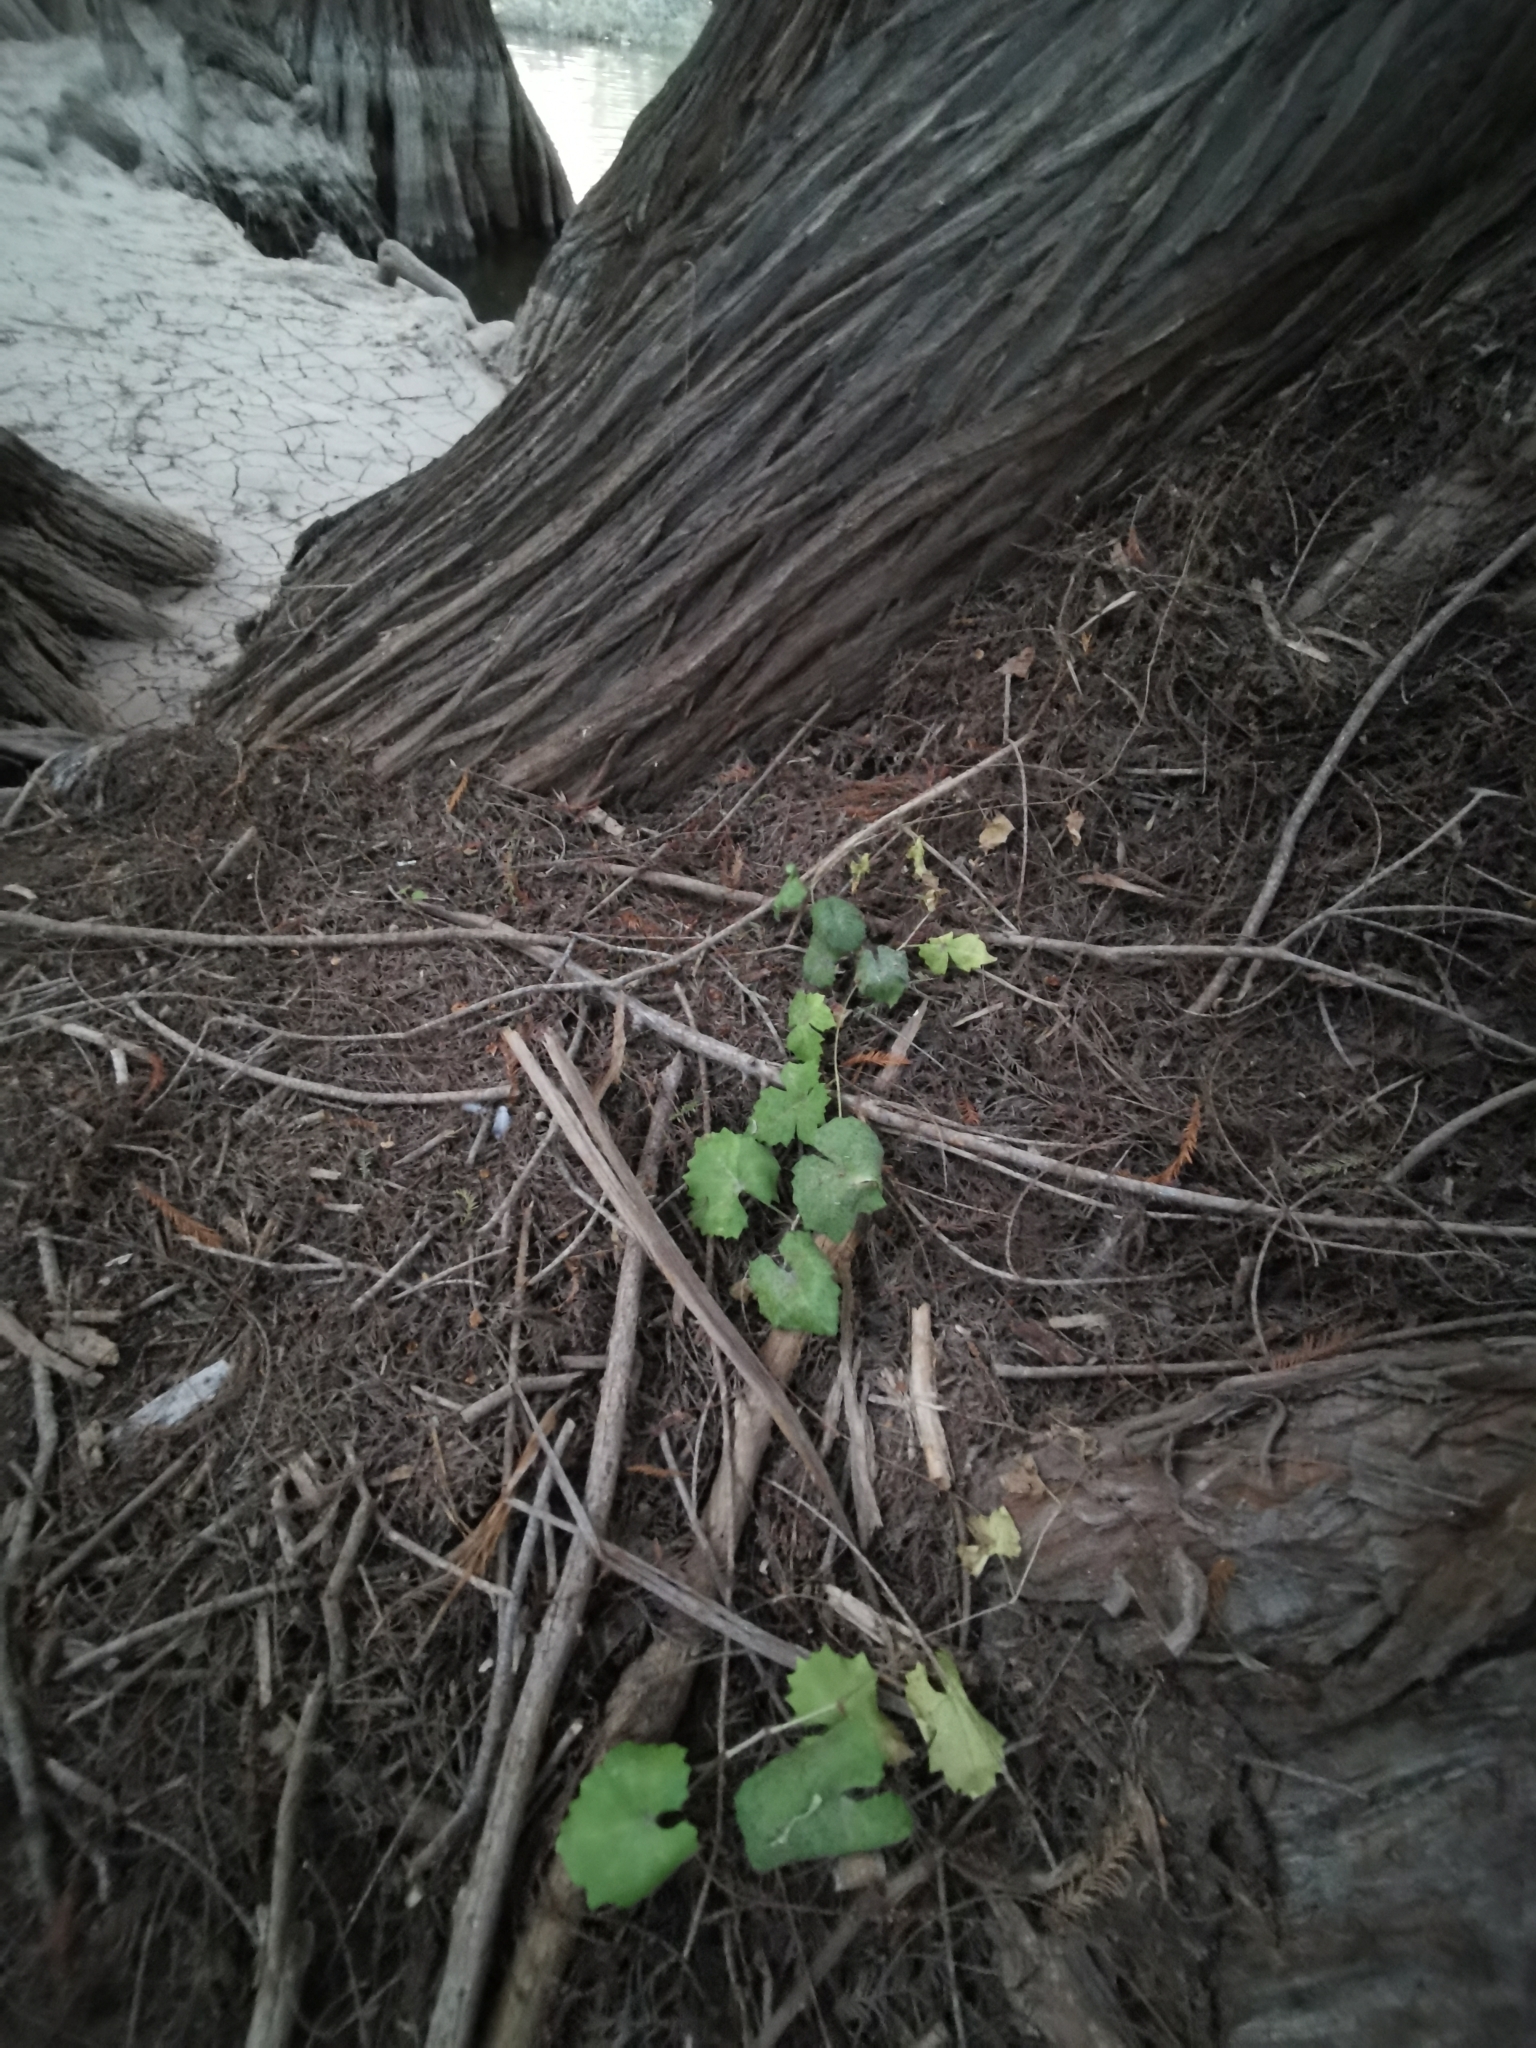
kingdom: Plantae
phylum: Tracheophyta
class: Magnoliopsida
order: Vitales
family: Vitaceae
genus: Cissus
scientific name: Cissus trifoliata
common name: Vine-sorrel
